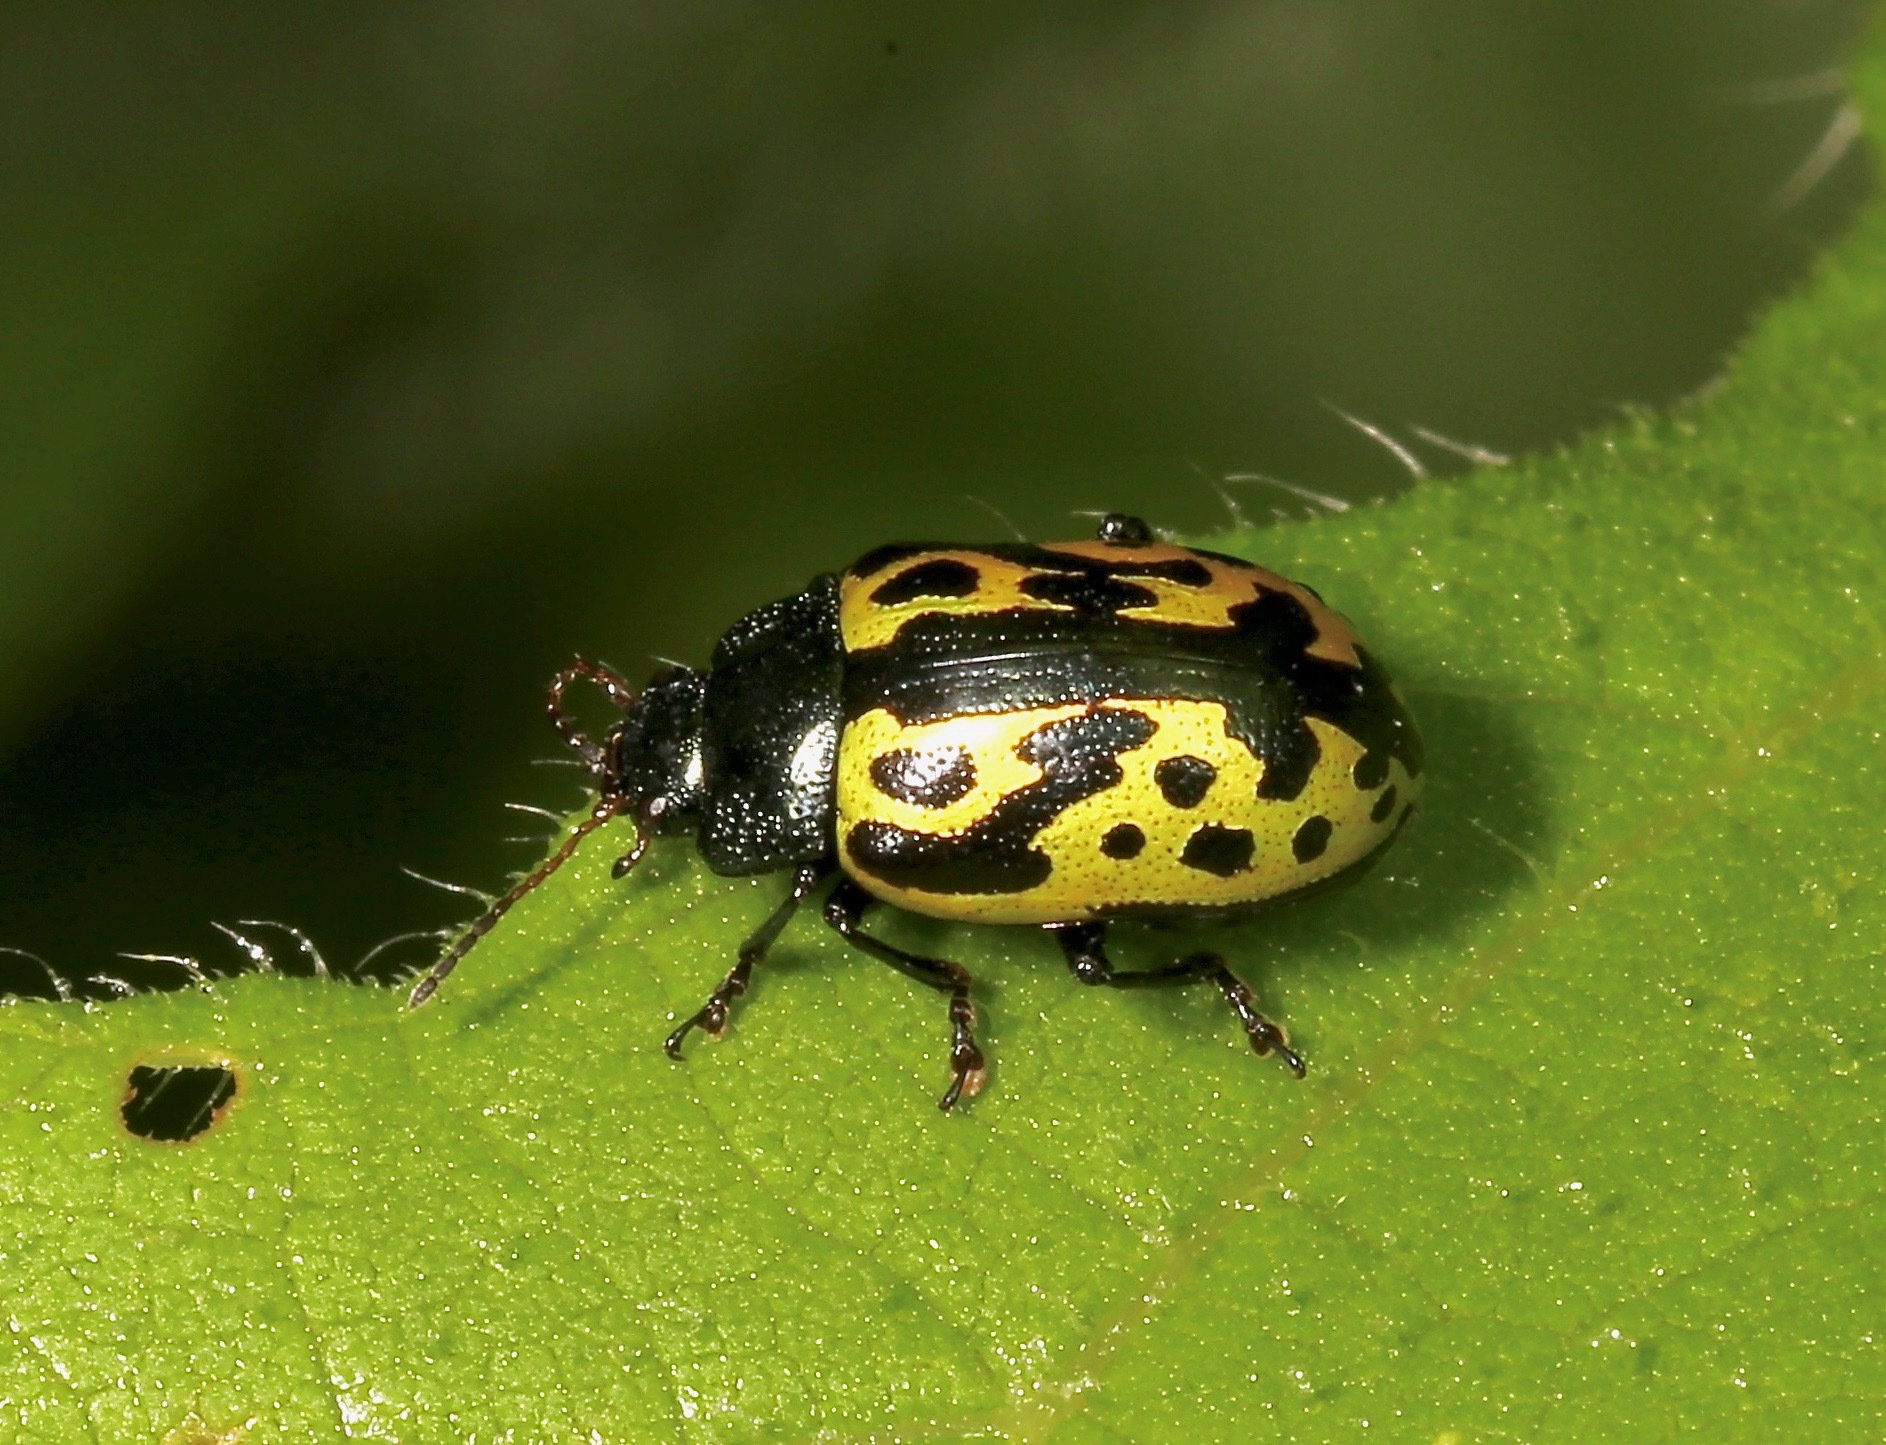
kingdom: Animalia
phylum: Arthropoda
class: Insecta
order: Coleoptera
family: Chrysomelidae
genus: Calligrapha
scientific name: Calligrapha
